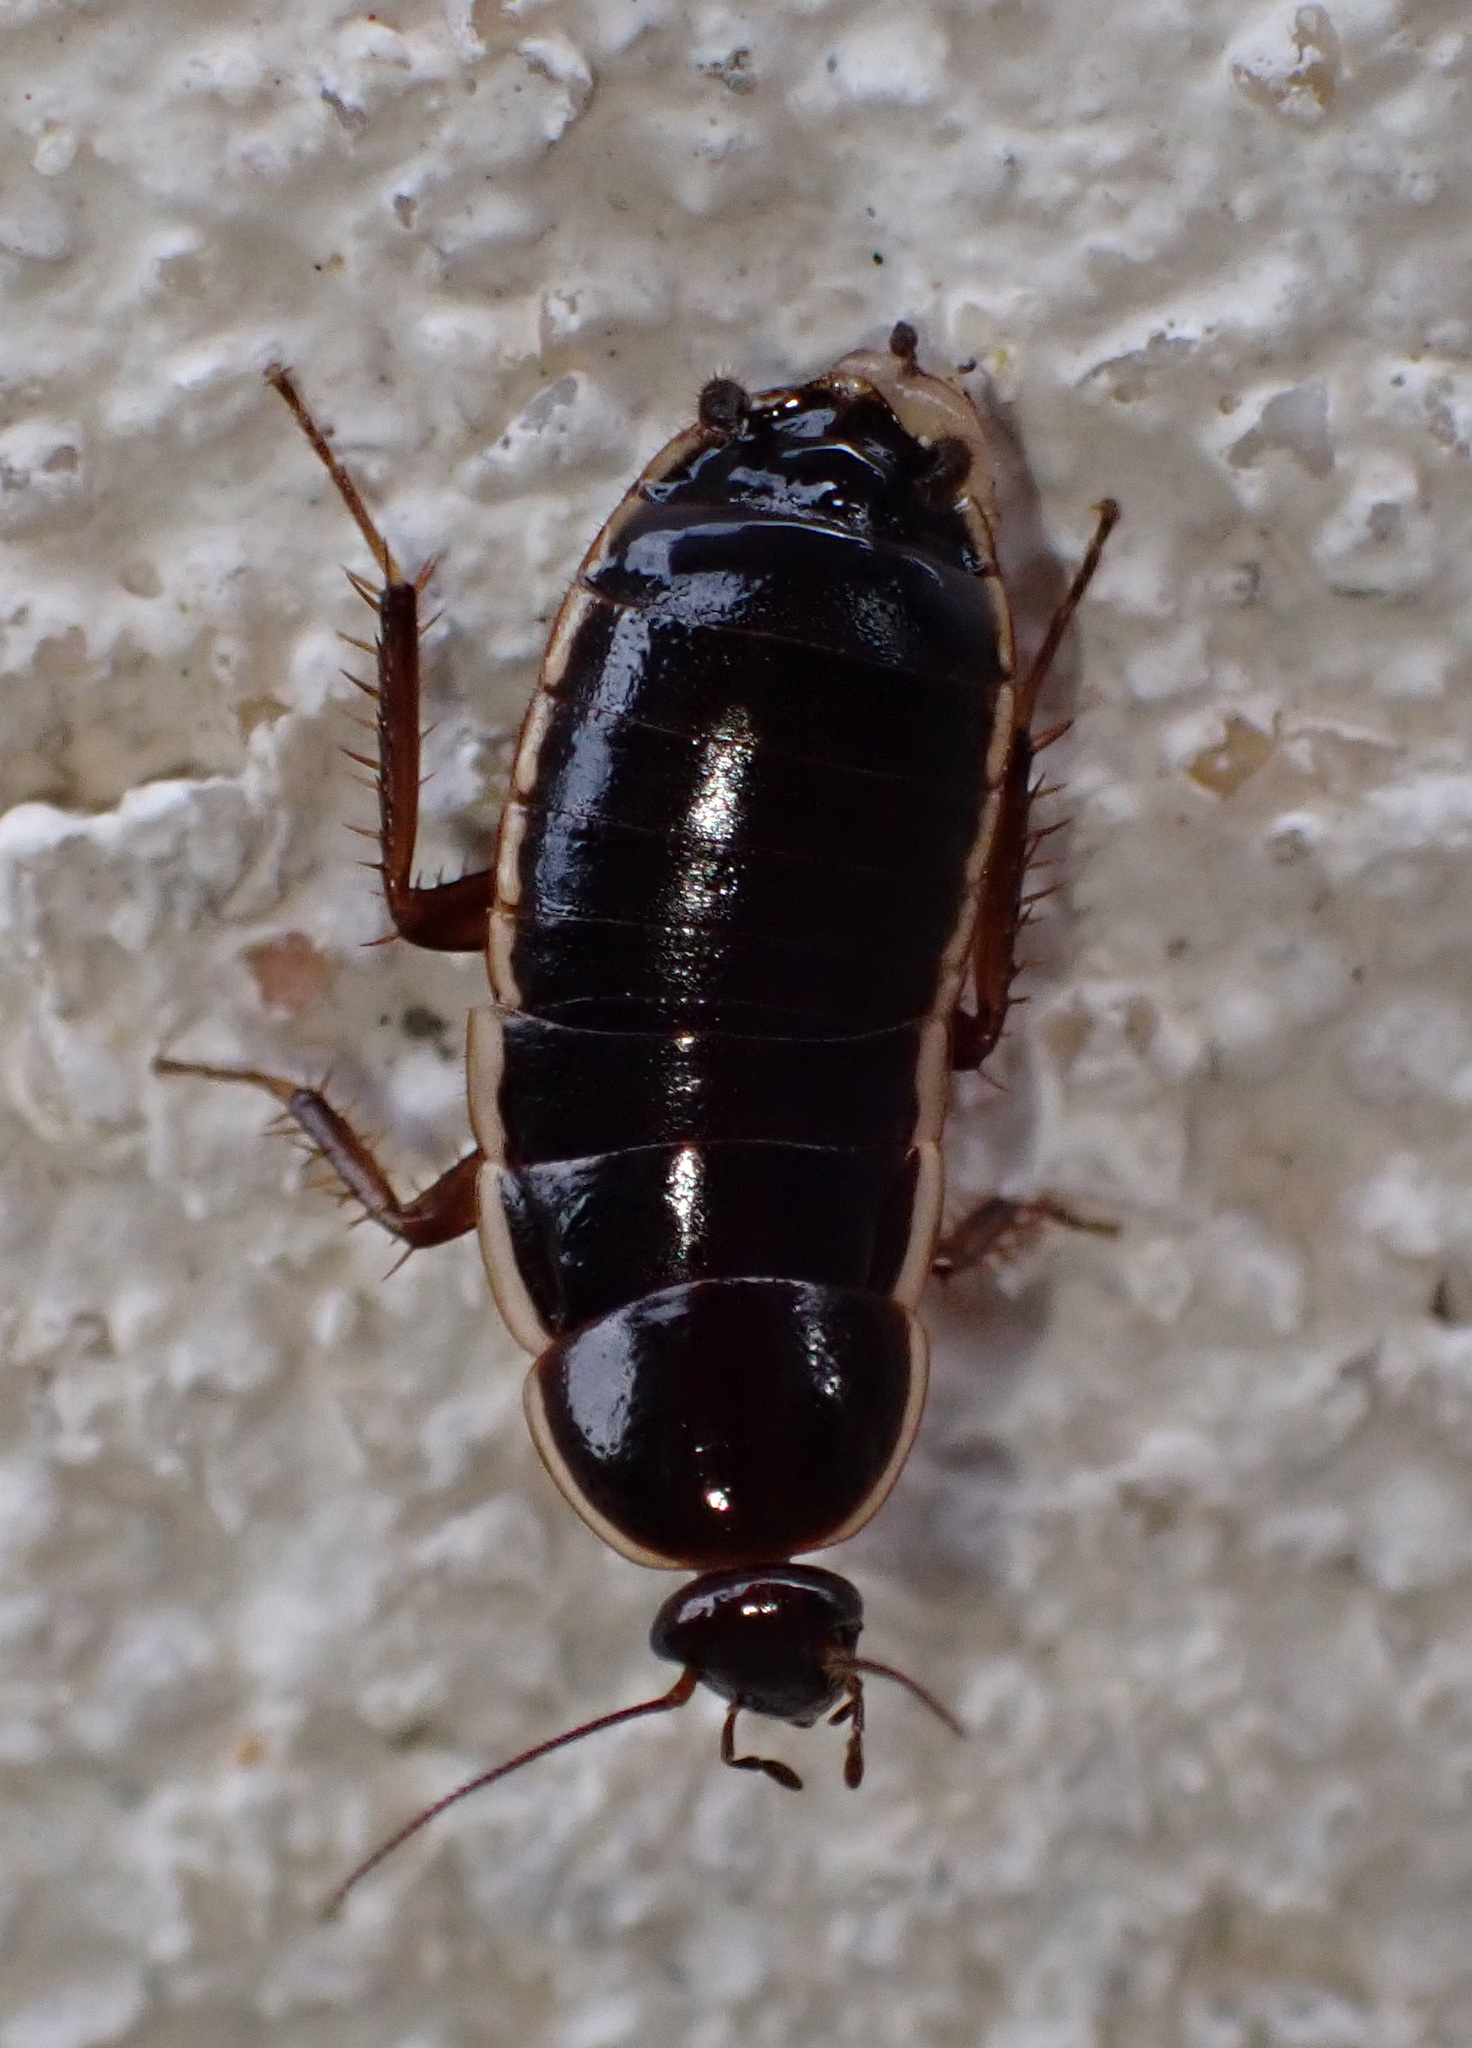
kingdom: Animalia
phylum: Arthropoda
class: Insecta
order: Blattodea
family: Ectobiidae
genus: Loboptera
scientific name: Loboptera decipiens
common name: Lobe-winged cockroach
